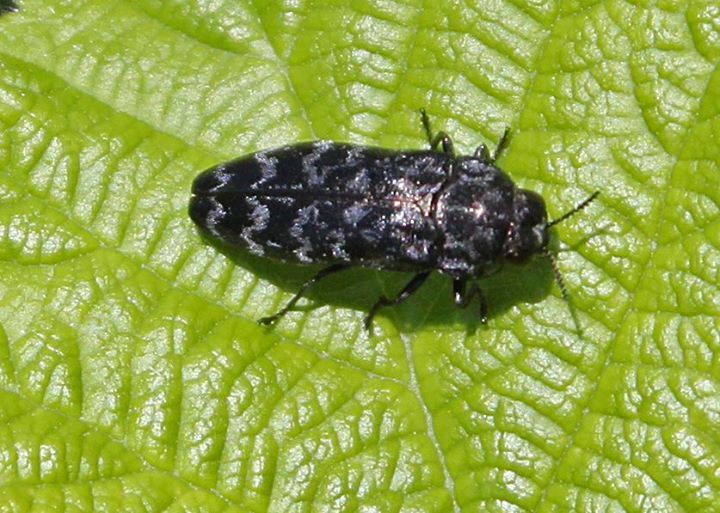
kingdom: Animalia
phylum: Arthropoda
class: Insecta
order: Coleoptera
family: Buprestidae
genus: Coraebus
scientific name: Coraebus rubi
